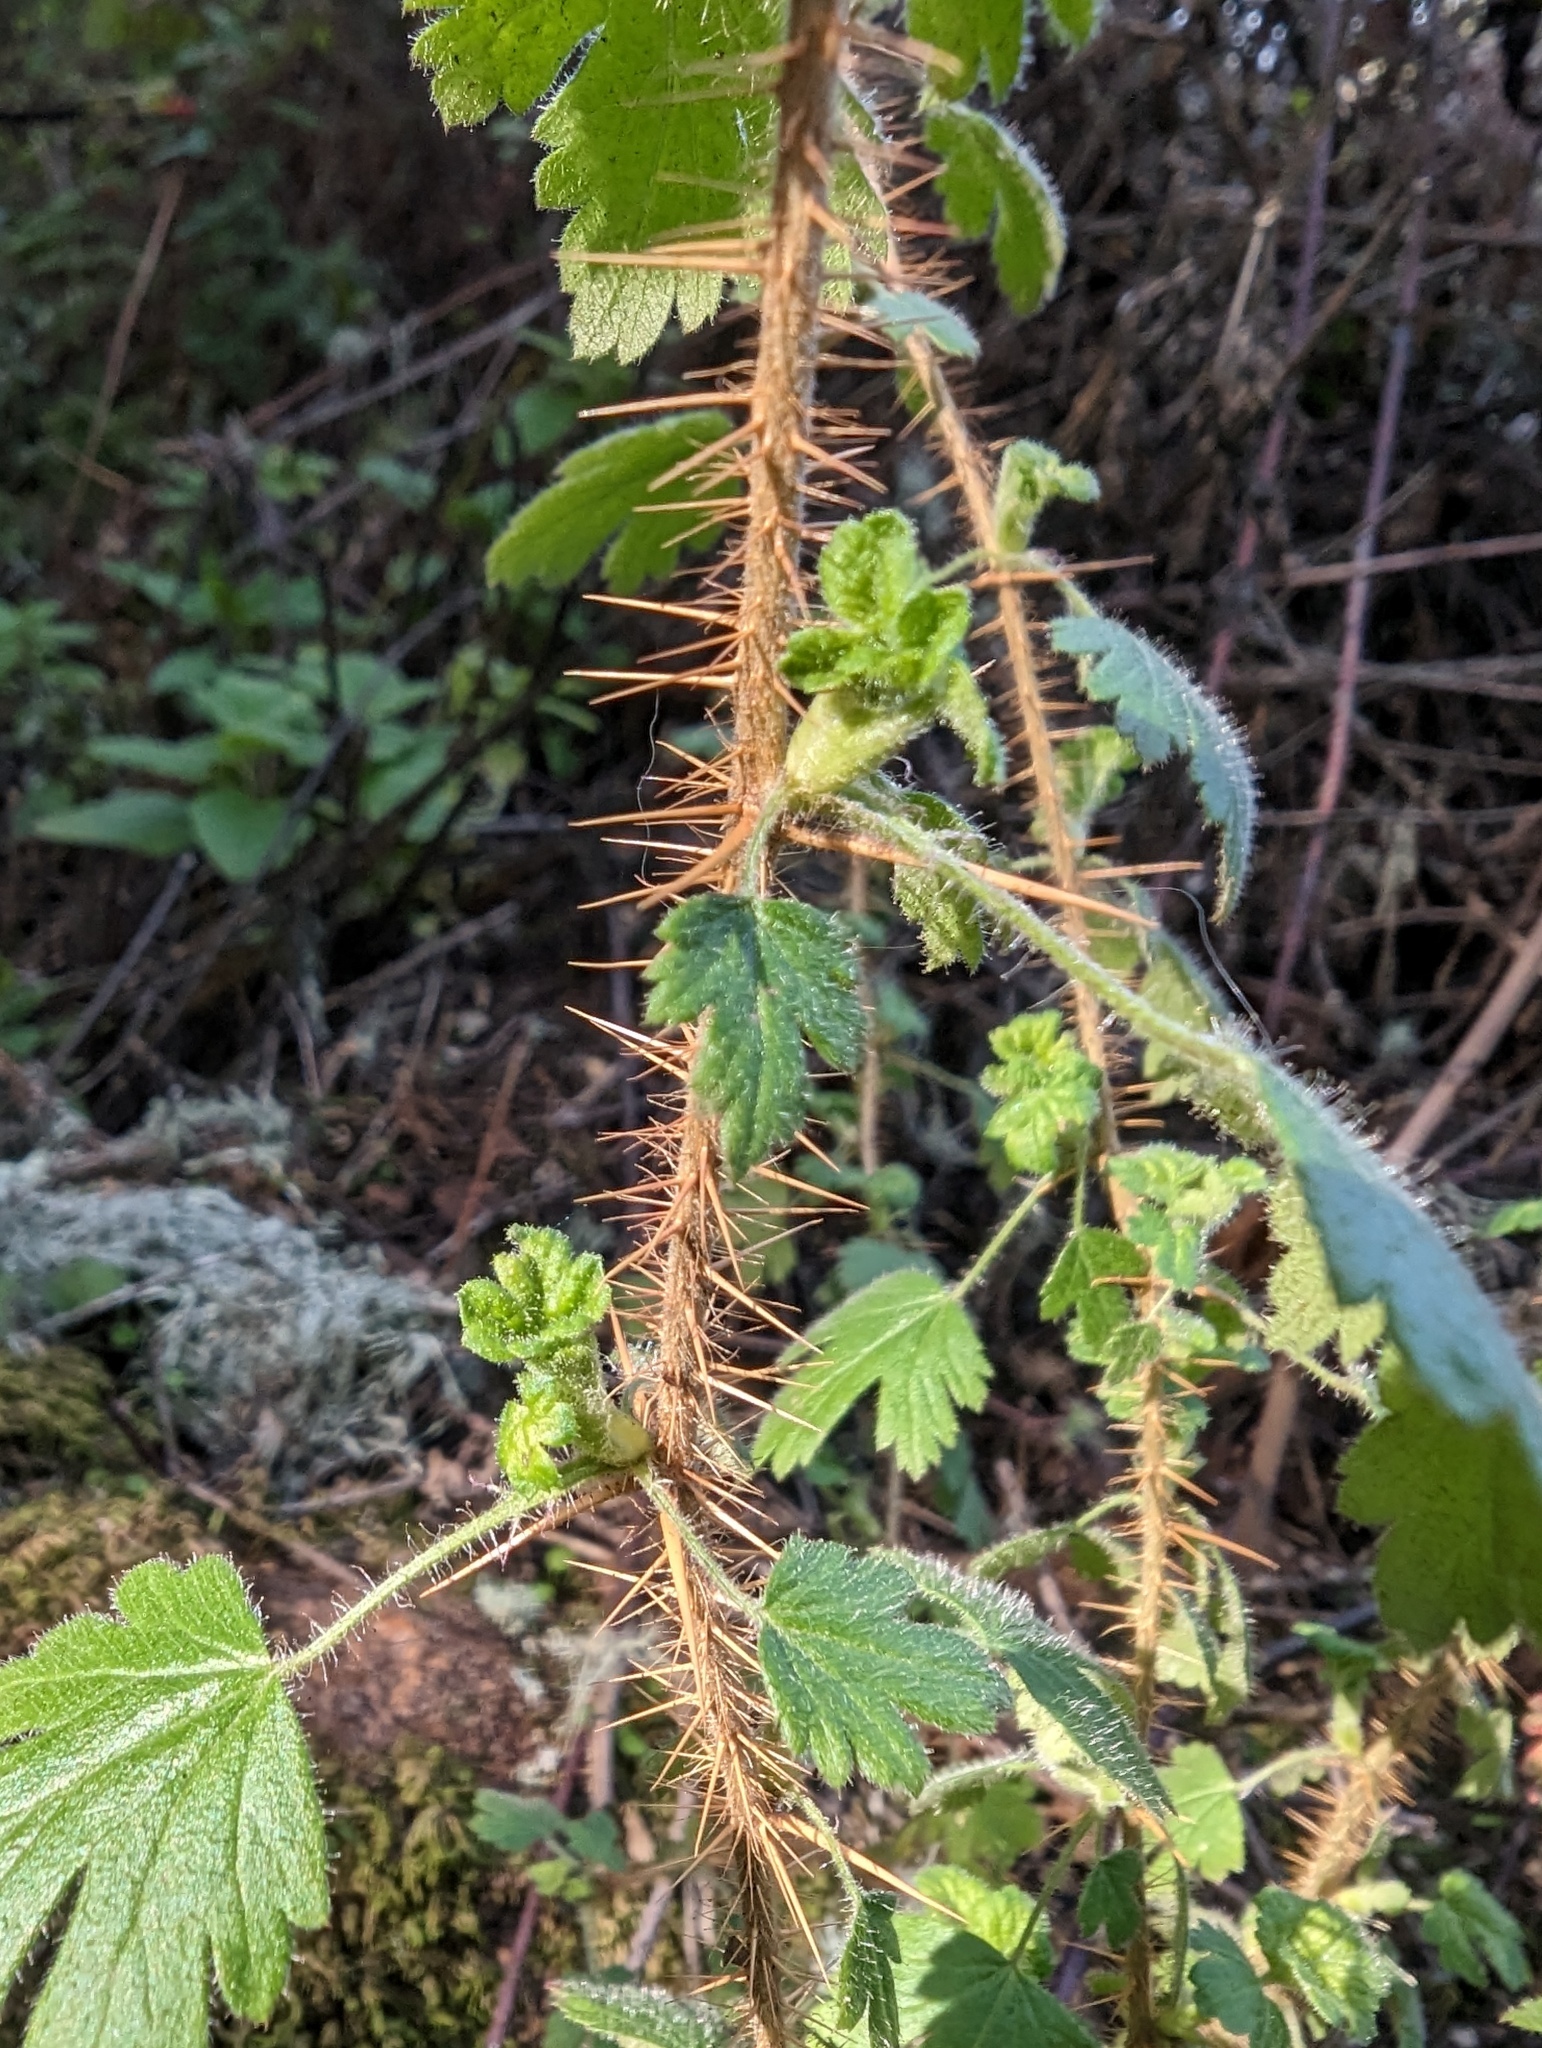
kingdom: Plantae
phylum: Tracheophyta
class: Magnoliopsida
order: Saxifragales
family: Grossulariaceae
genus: Ribes
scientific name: Ribes menziesii
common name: Canyon gooseberry
